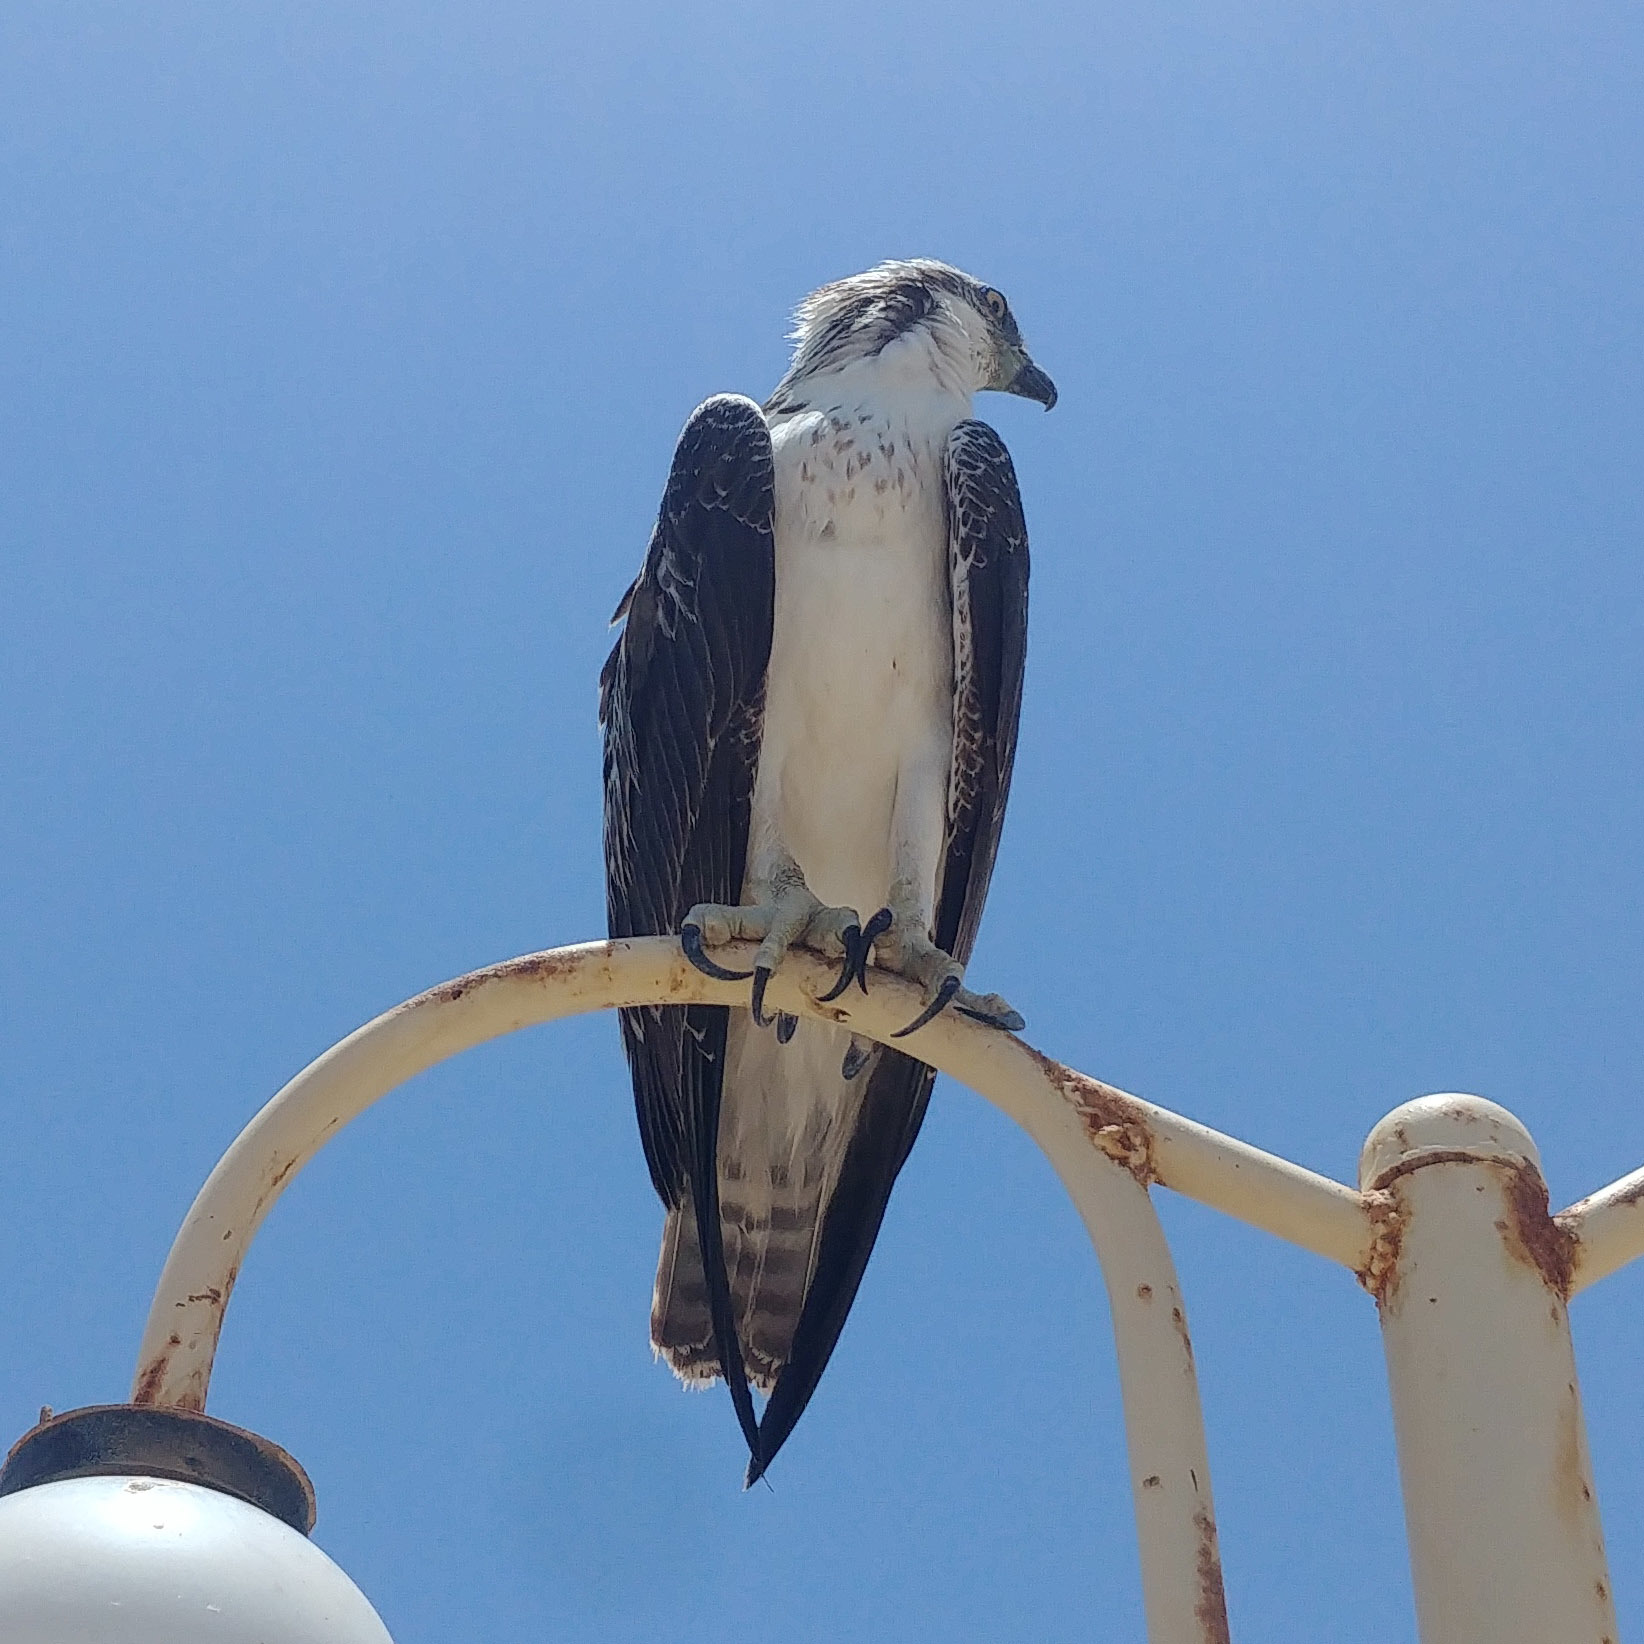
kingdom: Animalia
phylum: Chordata
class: Aves
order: Accipitriformes
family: Pandionidae
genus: Pandion
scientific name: Pandion haliaetus
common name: Osprey
